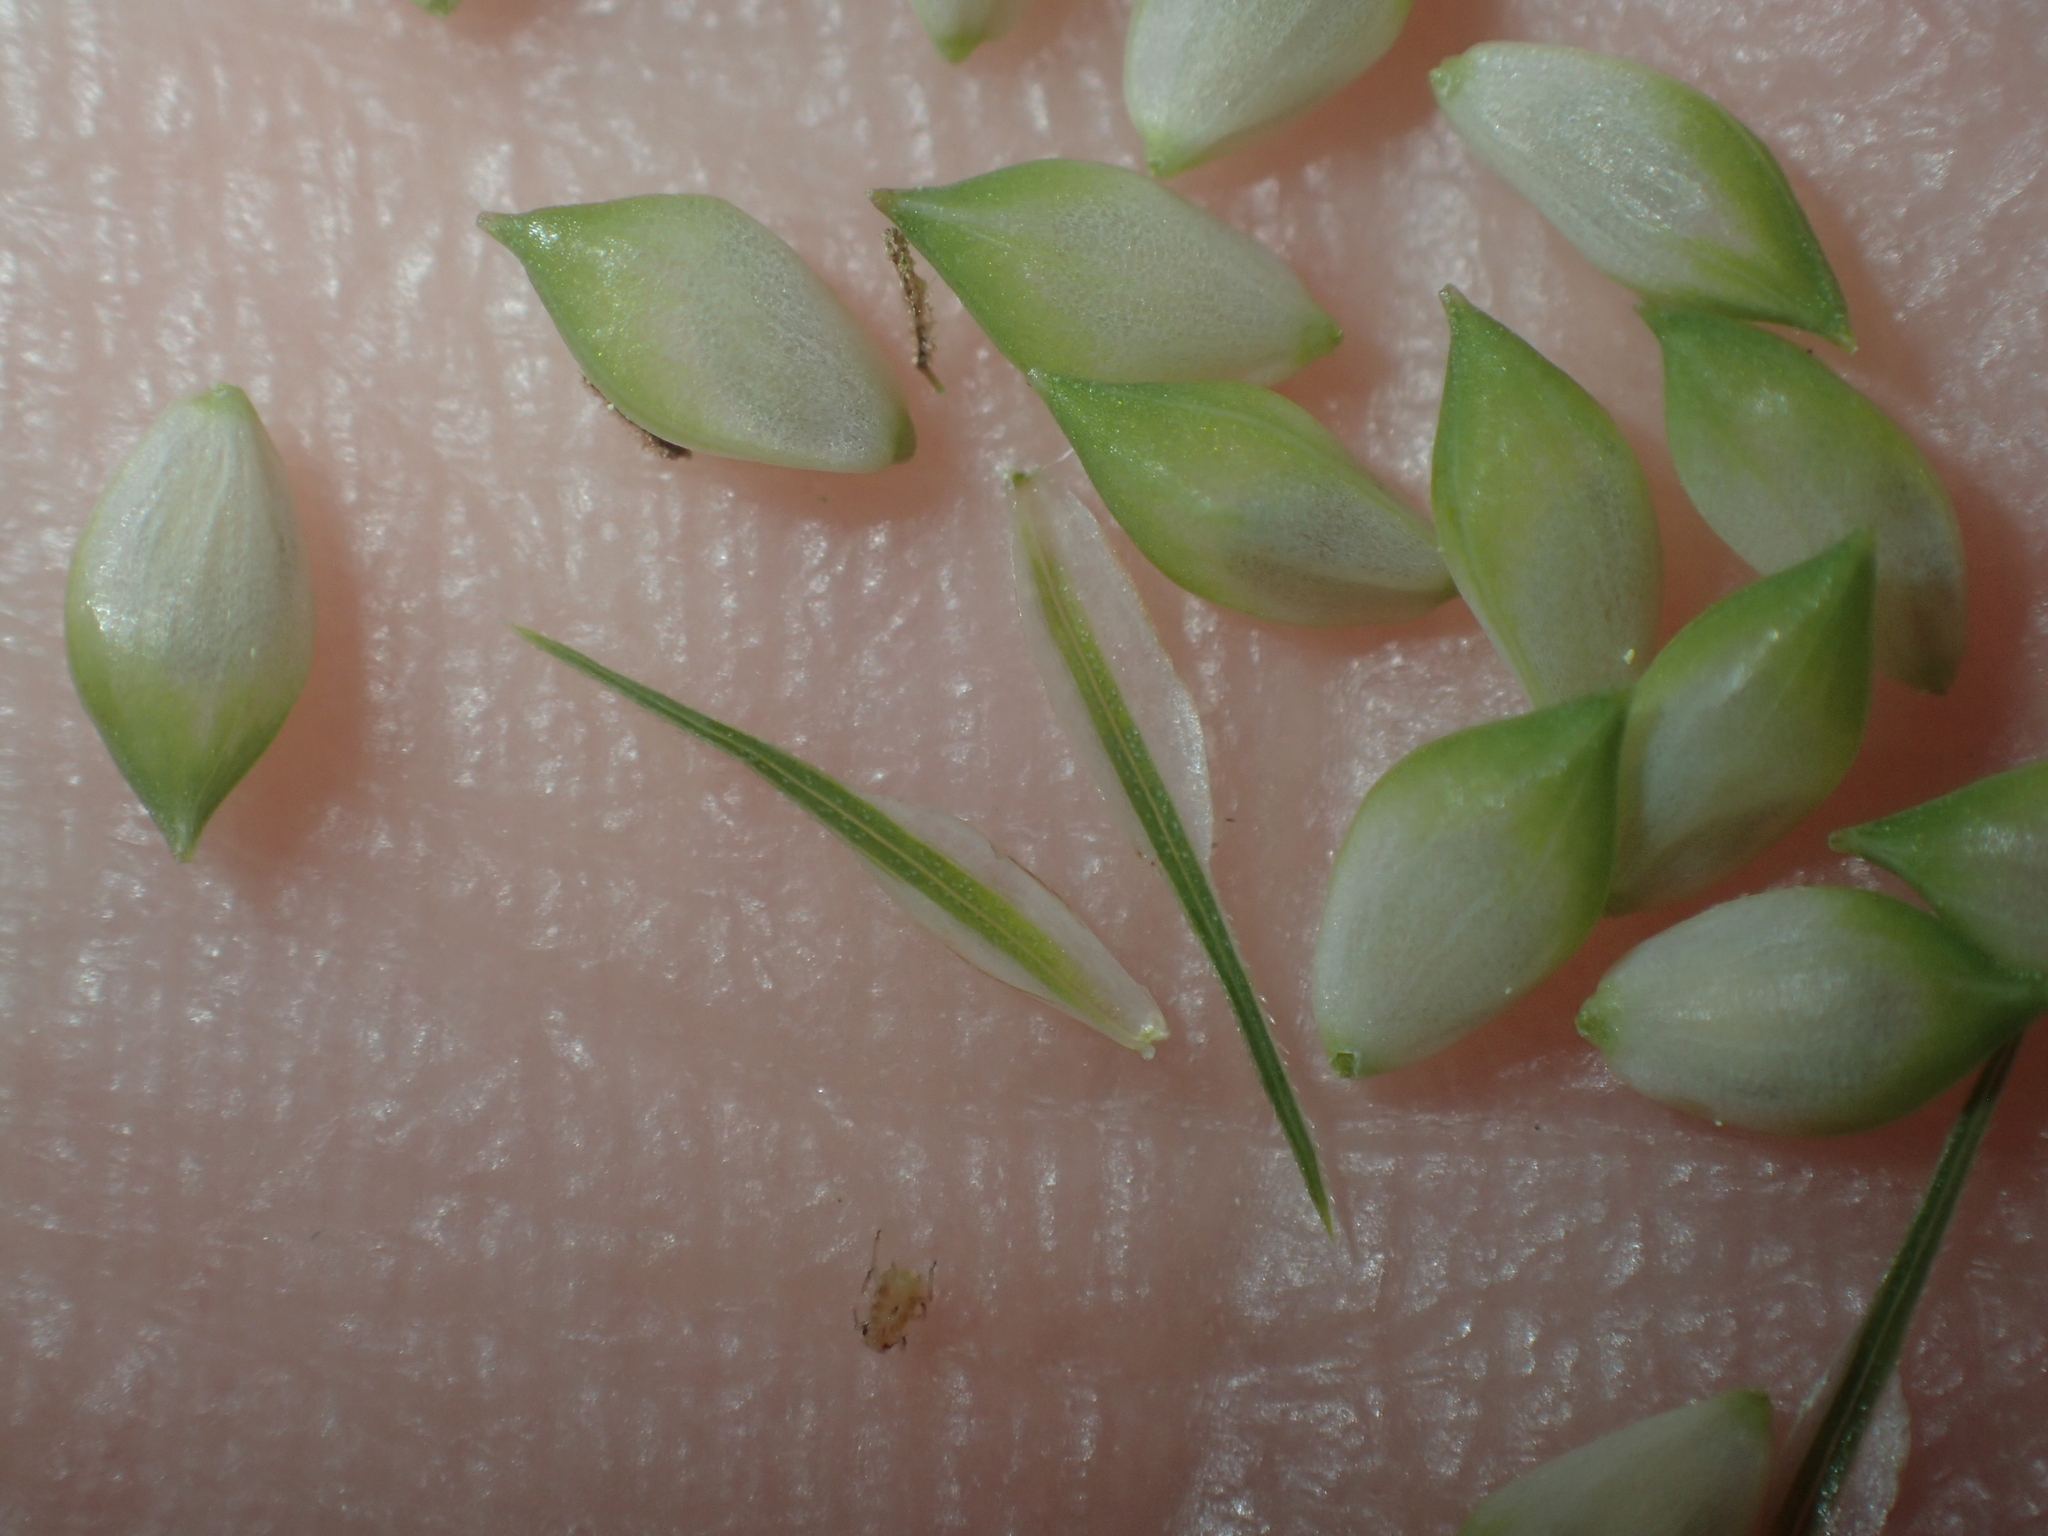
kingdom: Plantae
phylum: Tracheophyta
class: Liliopsida
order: Poales
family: Cyperaceae
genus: Carex
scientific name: Carex gynandra
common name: Nodding sedge
